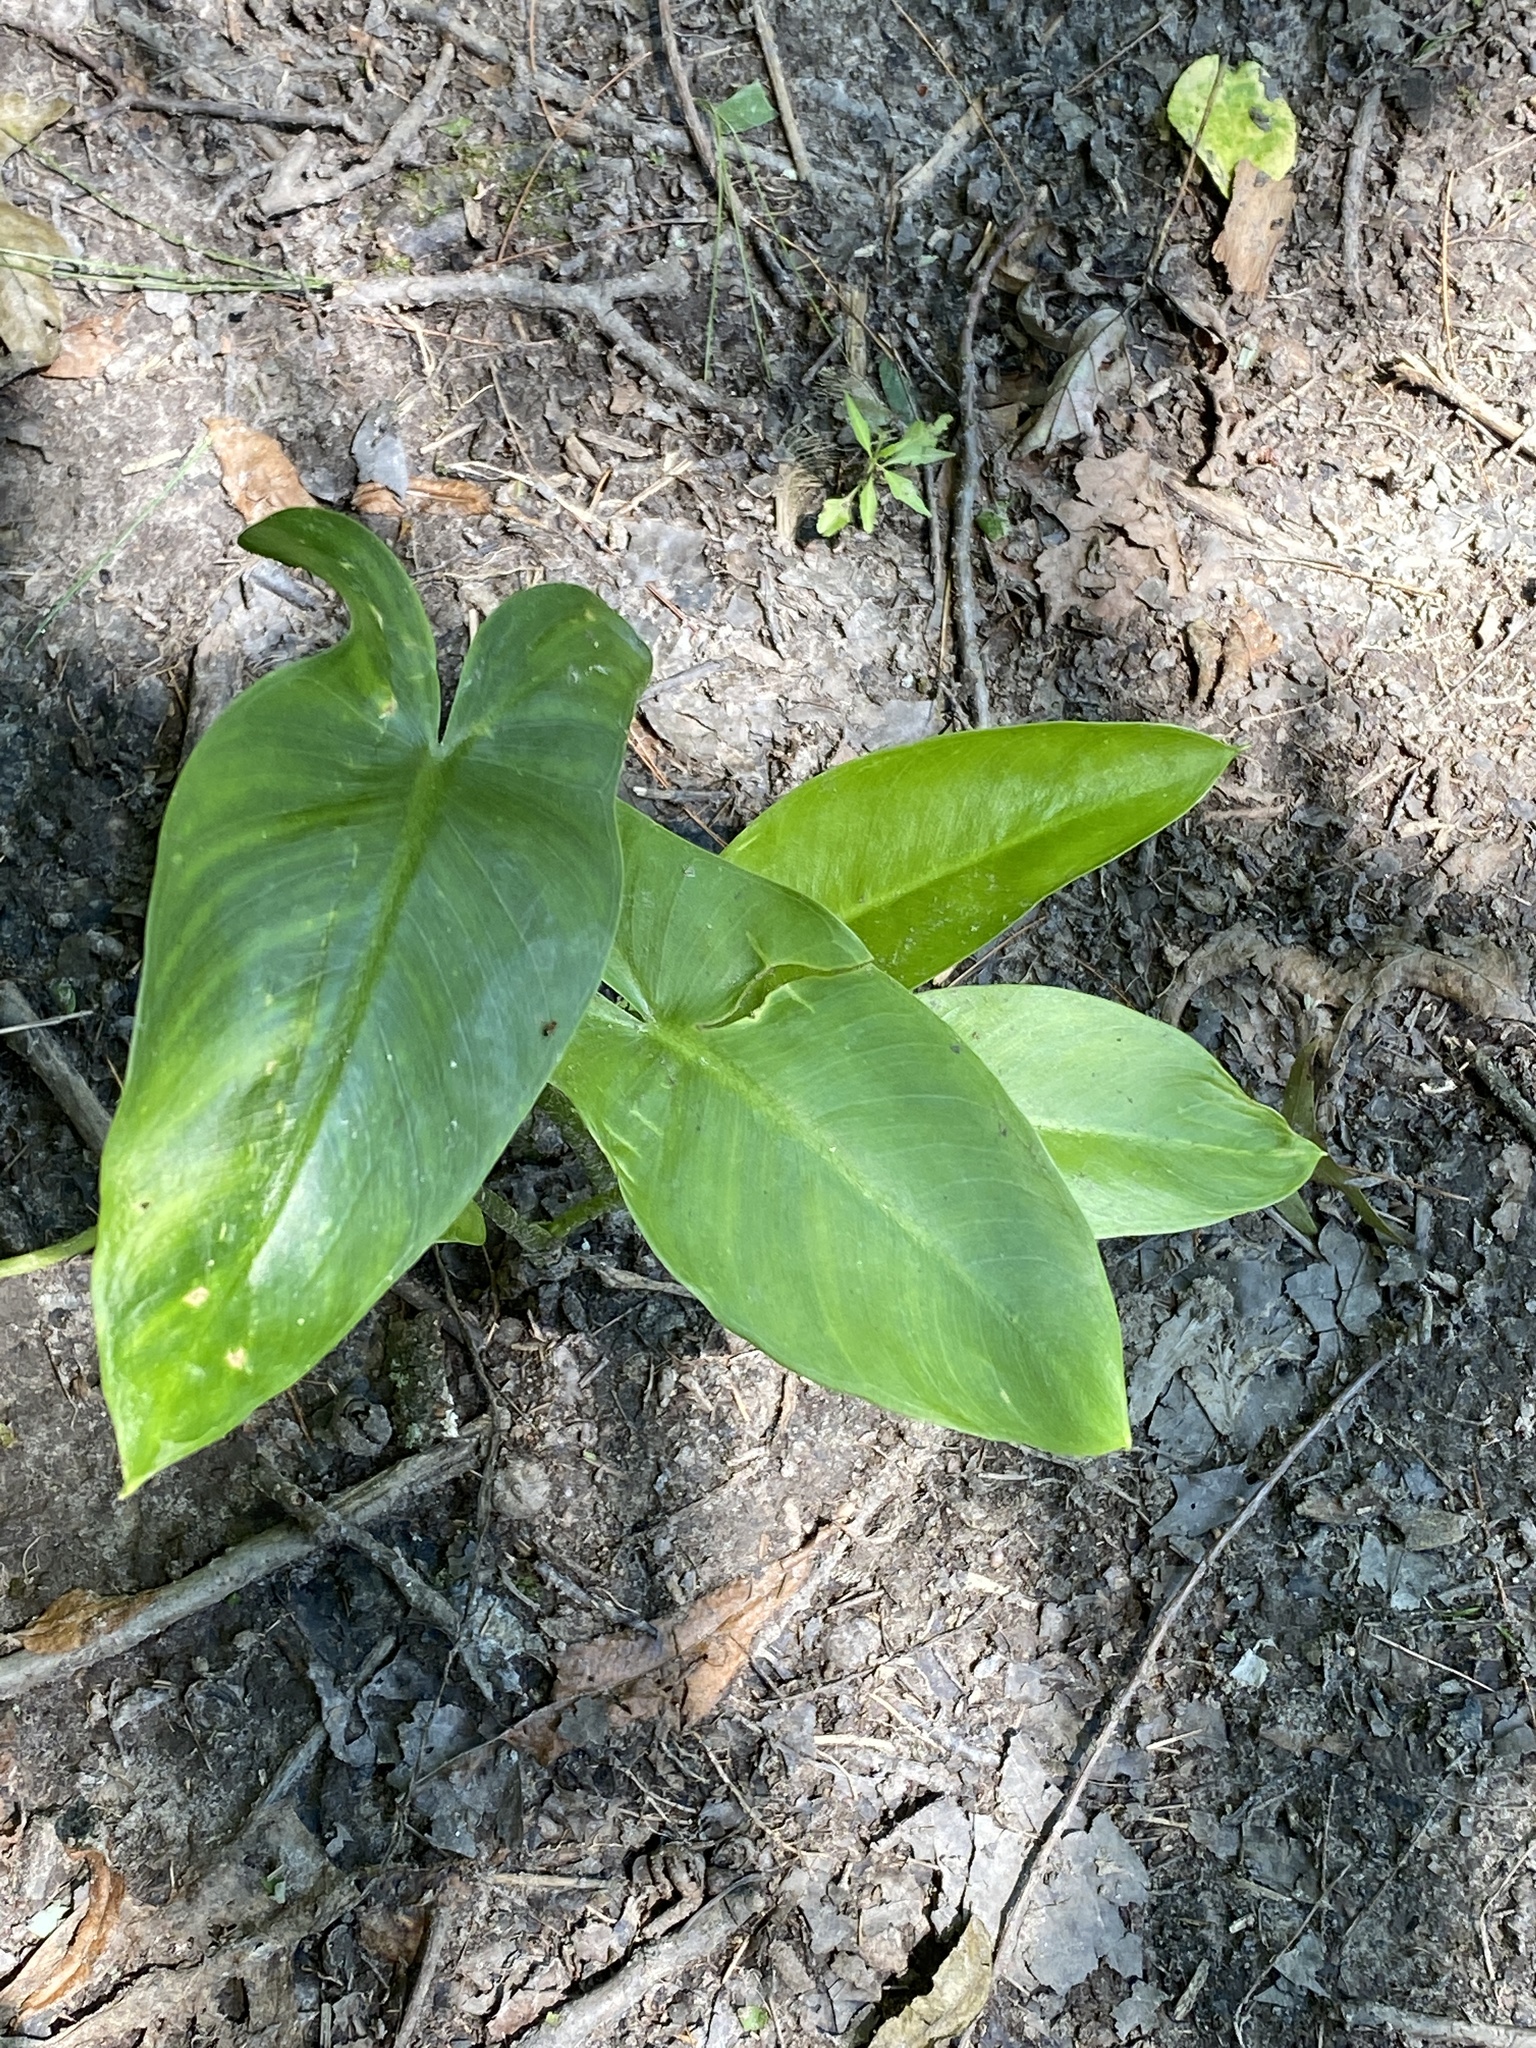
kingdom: Plantae
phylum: Tracheophyta
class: Liliopsida
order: Alismatales
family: Araceae
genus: Peltandra
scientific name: Peltandra virginica
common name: Arrow arum
